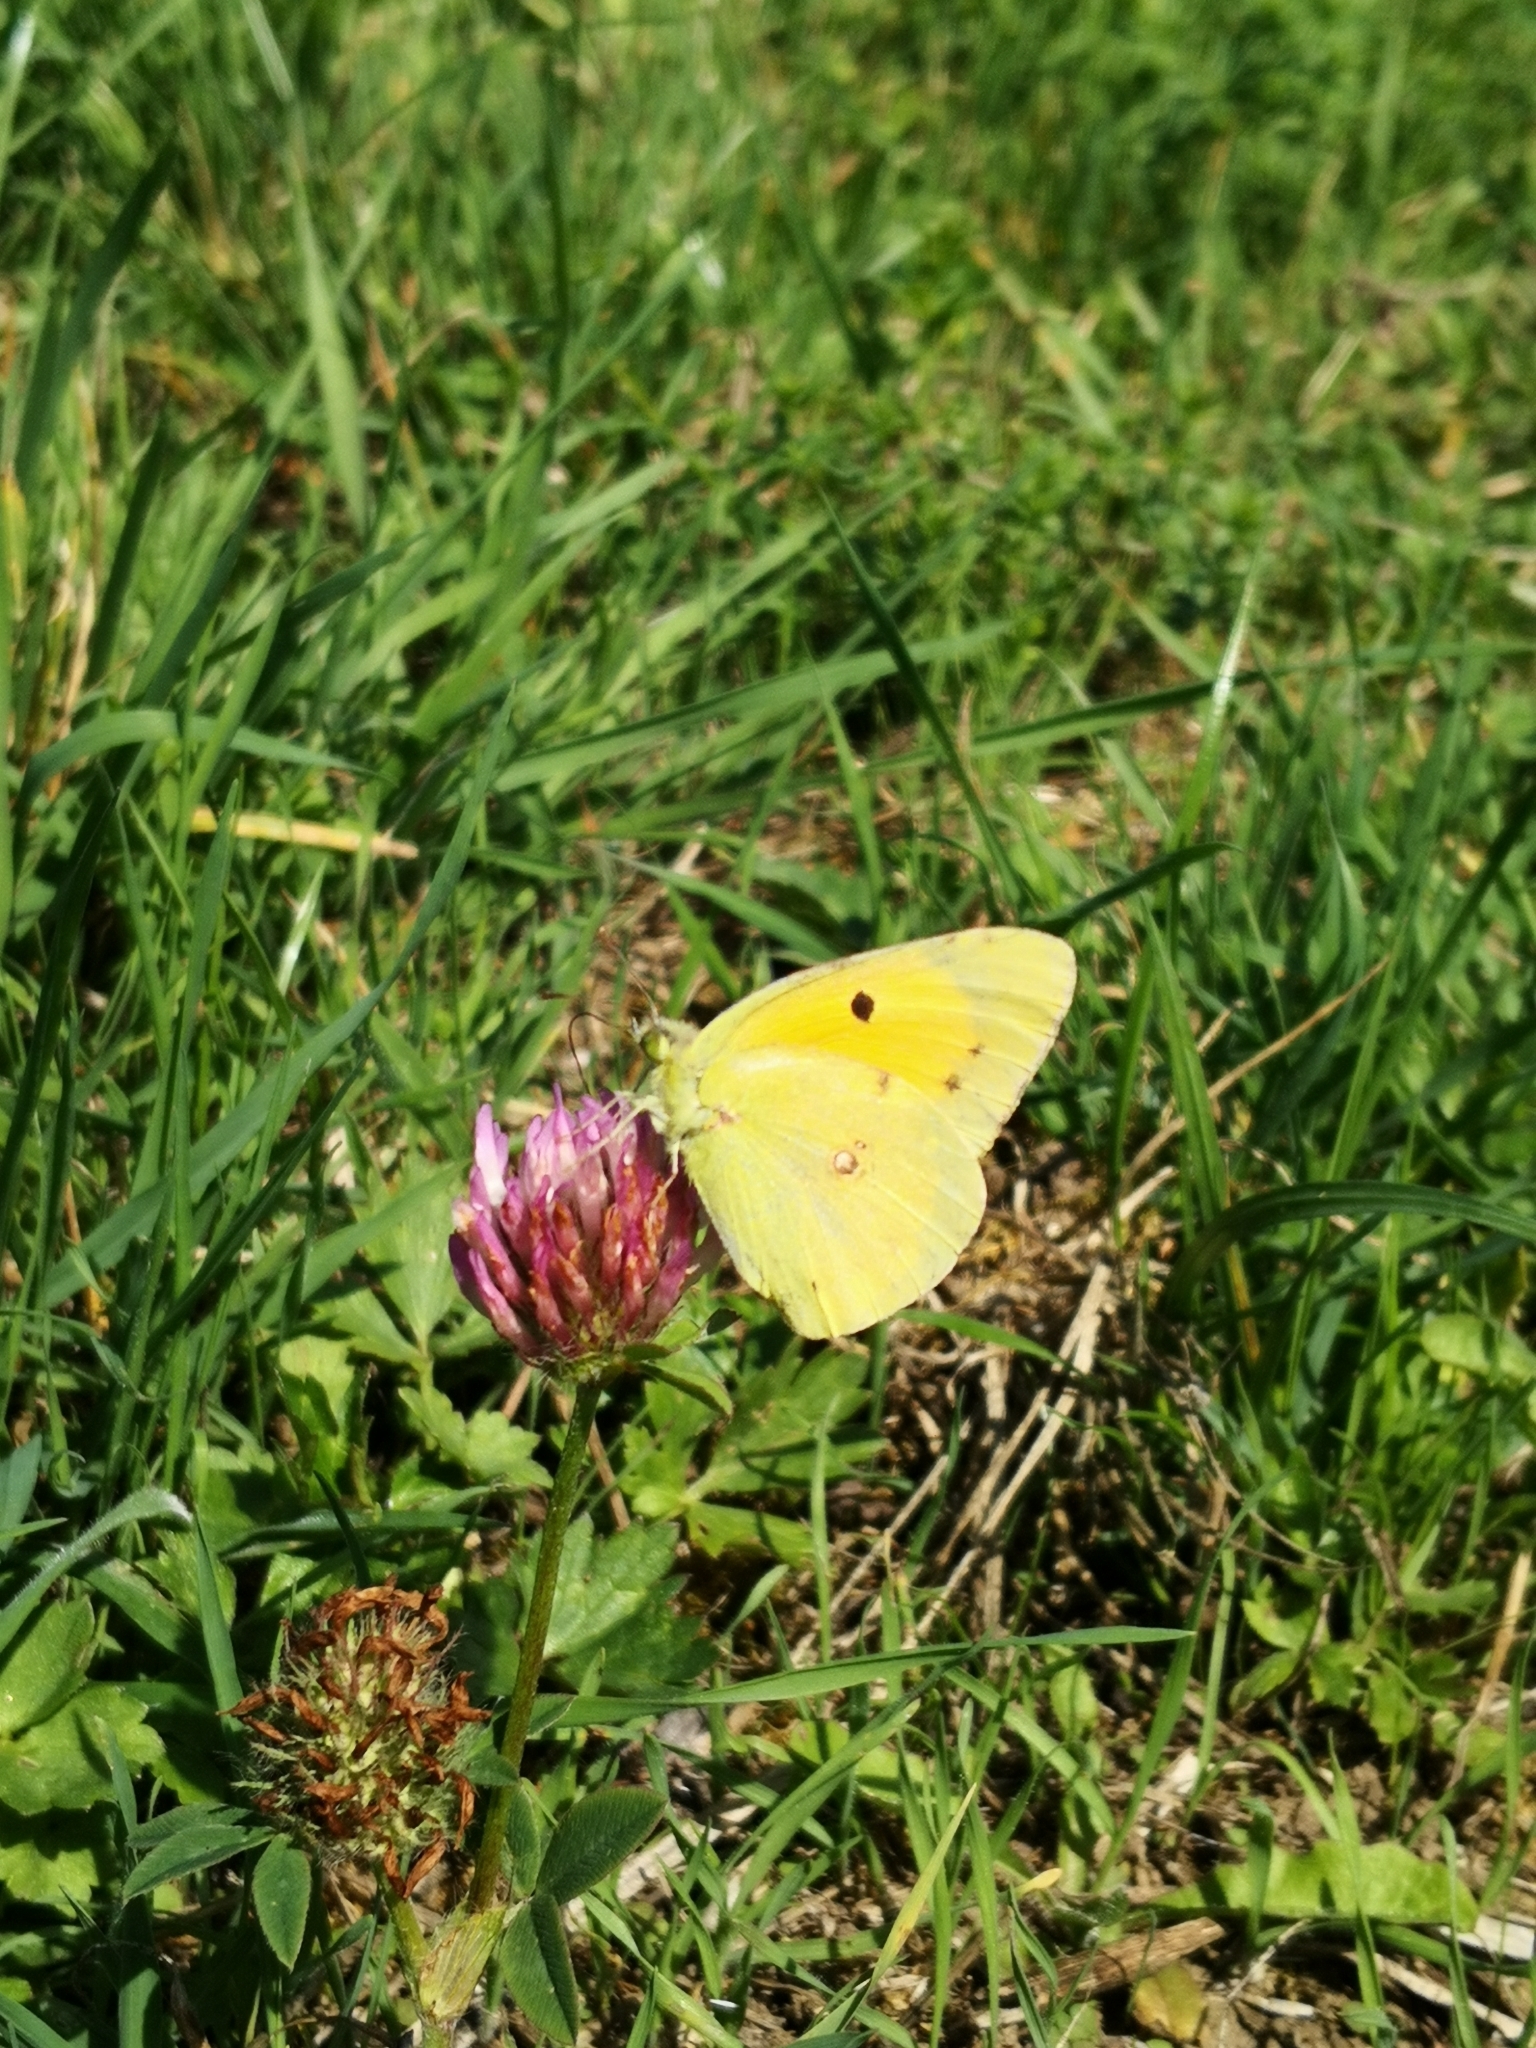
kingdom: Animalia
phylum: Arthropoda
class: Insecta
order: Lepidoptera
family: Pieridae
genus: Colias
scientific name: Colias croceus
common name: Clouded yellow
